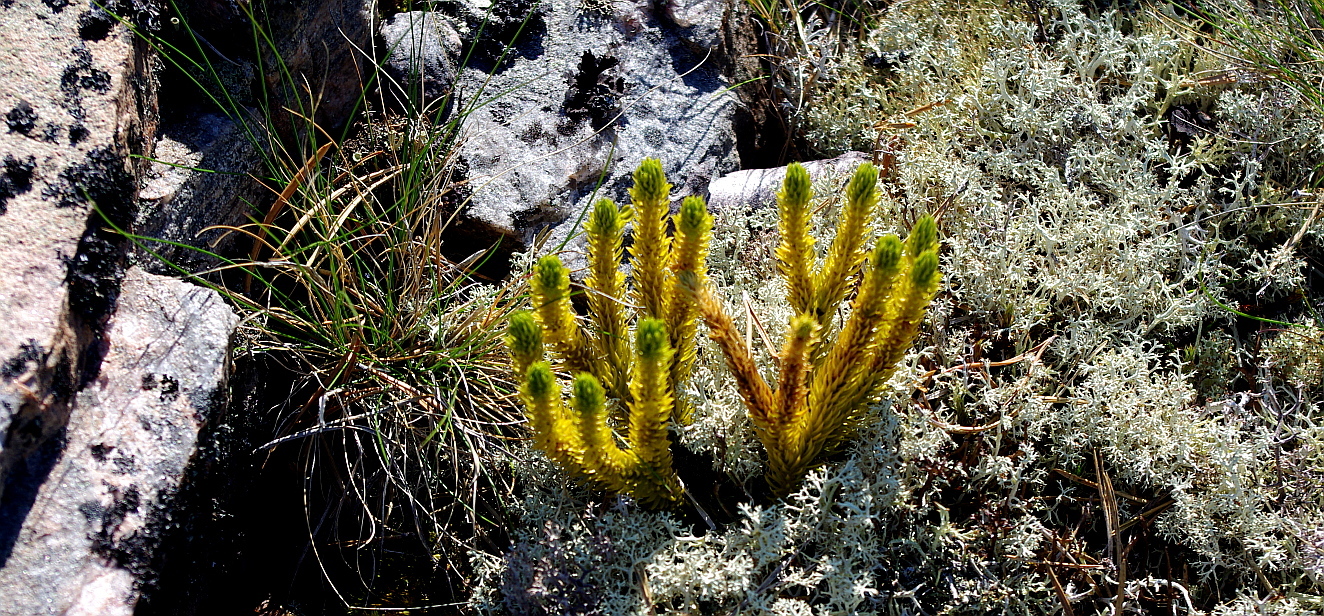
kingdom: Plantae
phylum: Tracheophyta
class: Lycopodiopsida
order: Lycopodiales
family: Lycopodiaceae
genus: Huperzia
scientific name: Huperzia selago
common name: Northern firmoss
